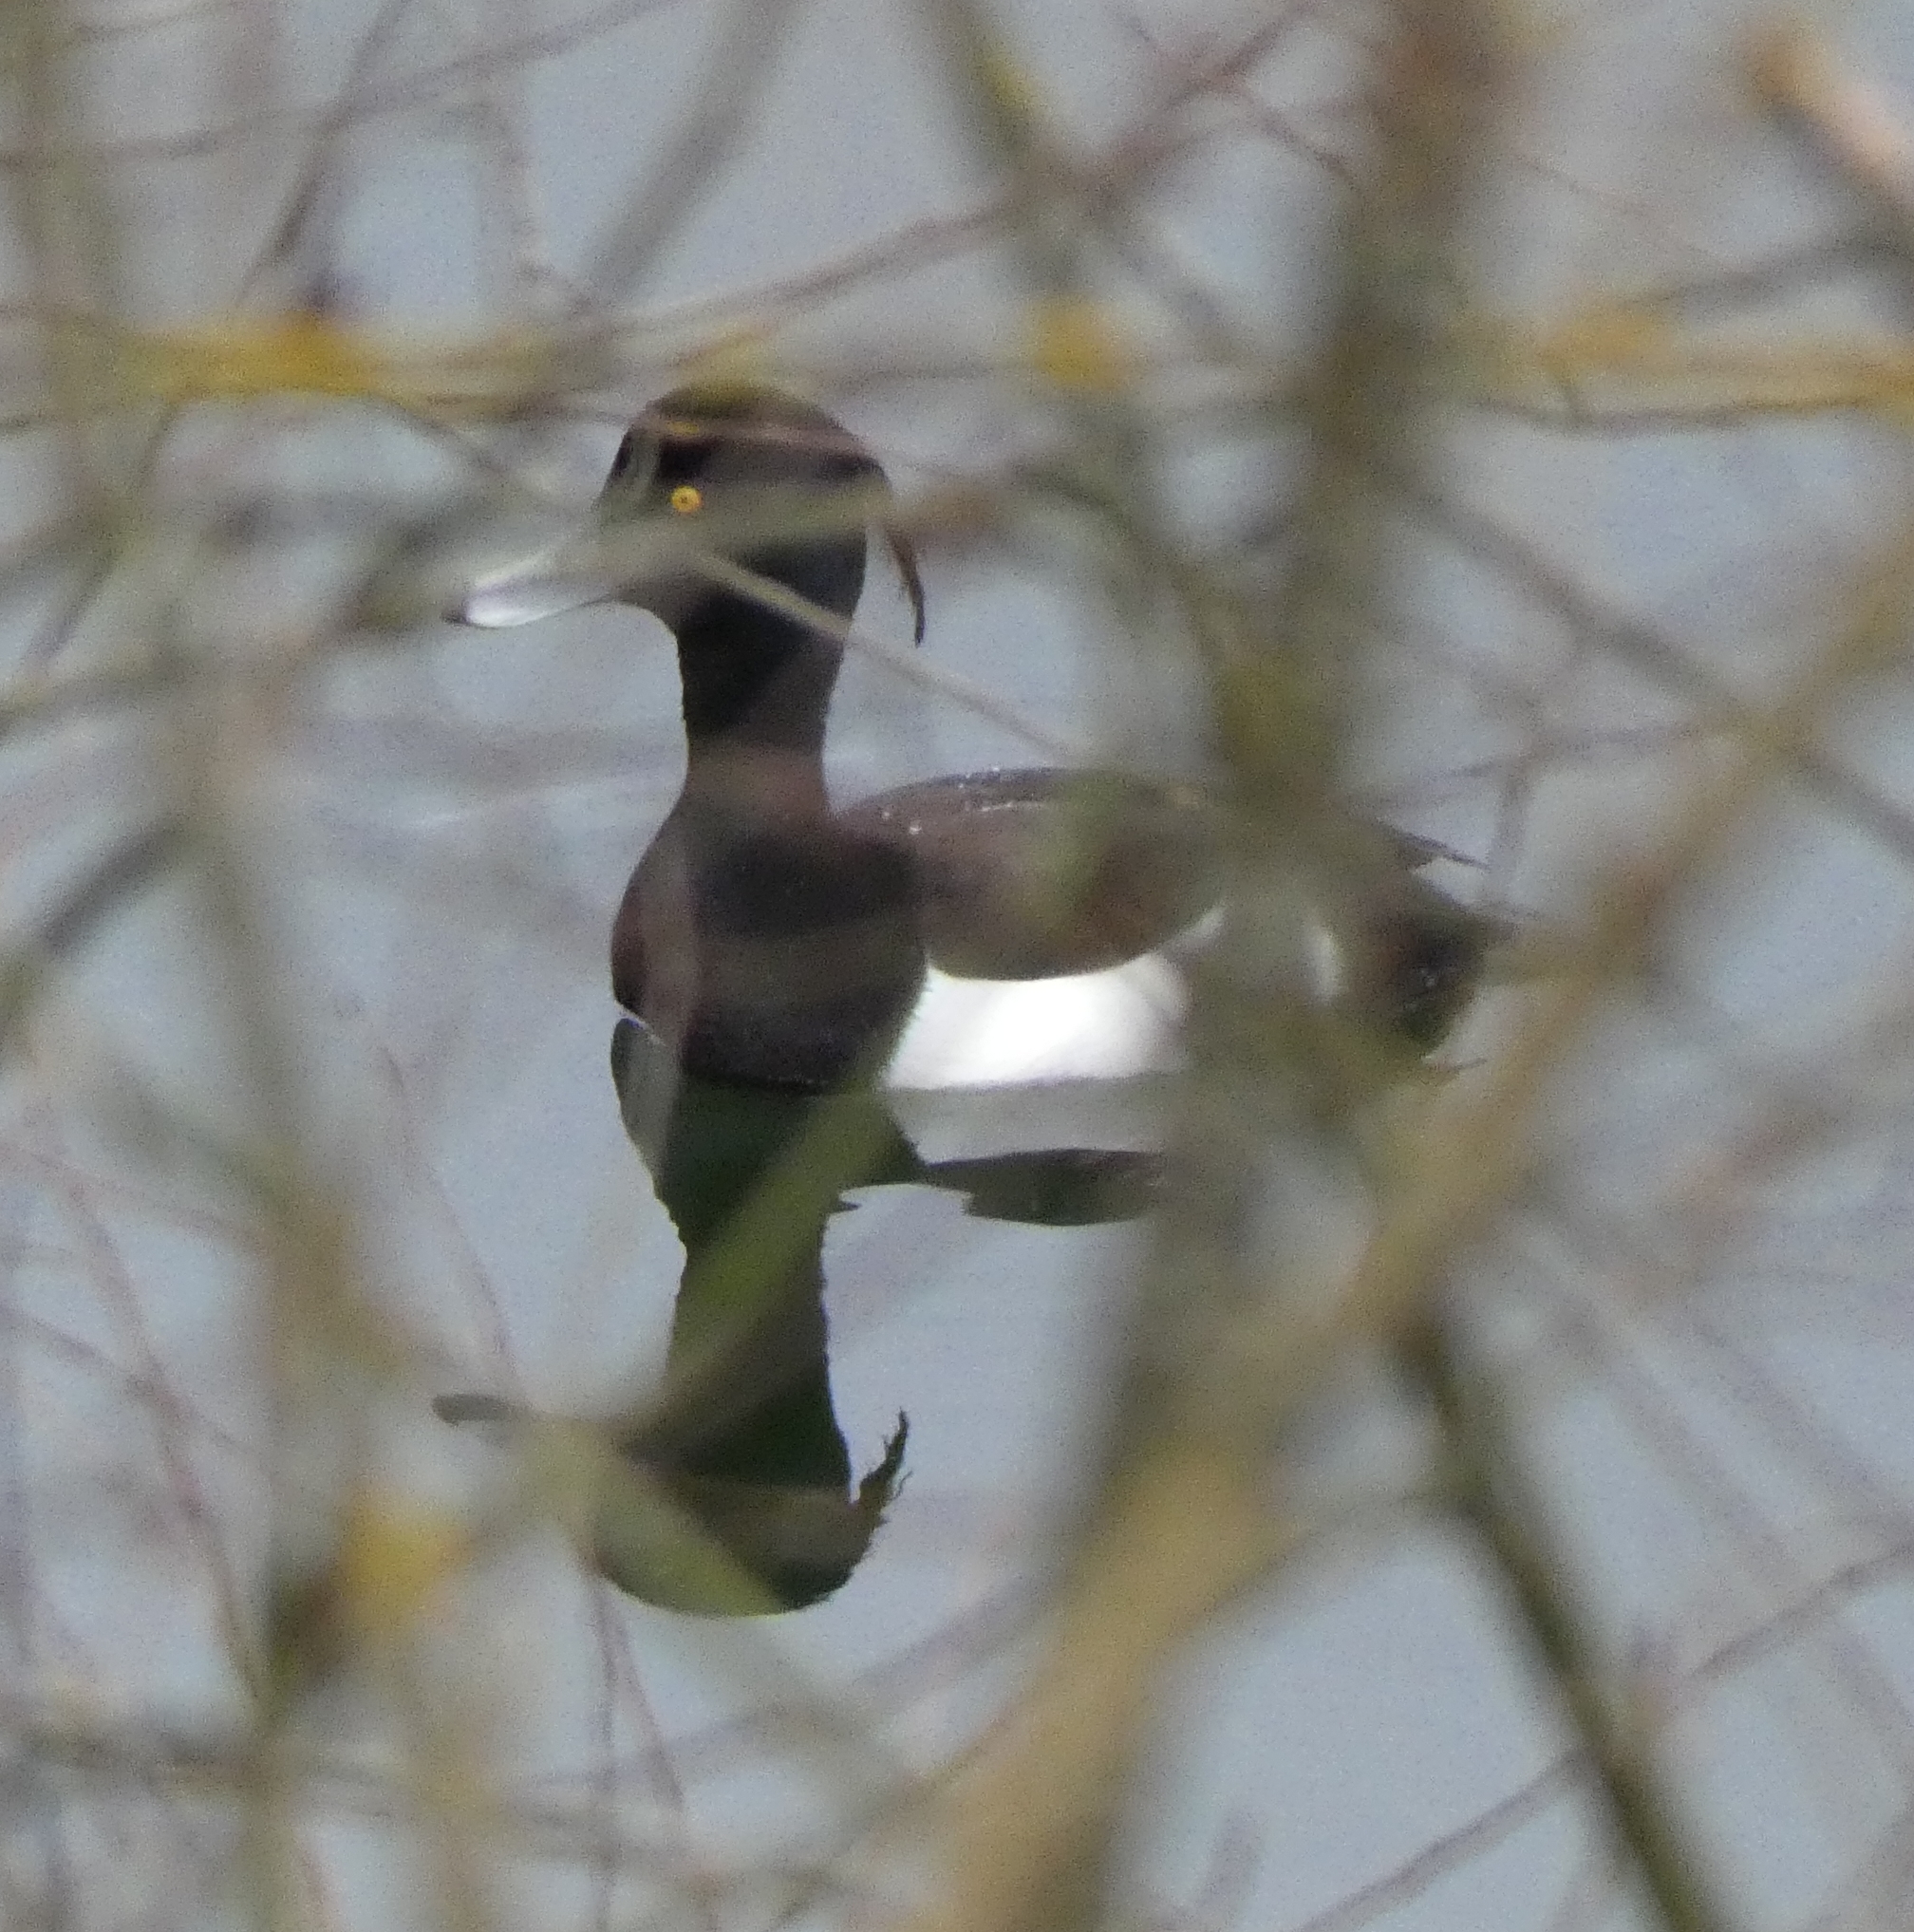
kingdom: Animalia
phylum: Chordata
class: Aves
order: Anseriformes
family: Anatidae
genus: Aythya
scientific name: Aythya fuligula
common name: Tufted duck
